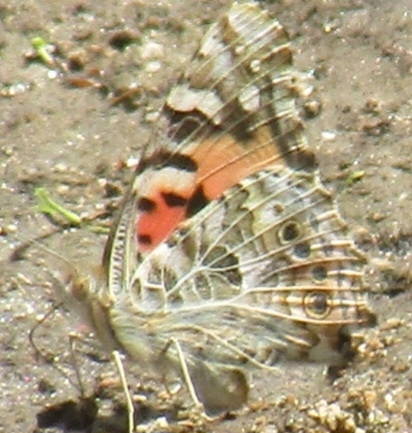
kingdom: Animalia
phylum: Arthropoda
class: Insecta
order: Lepidoptera
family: Nymphalidae
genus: Vanessa
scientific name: Vanessa cardui
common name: Painted lady
